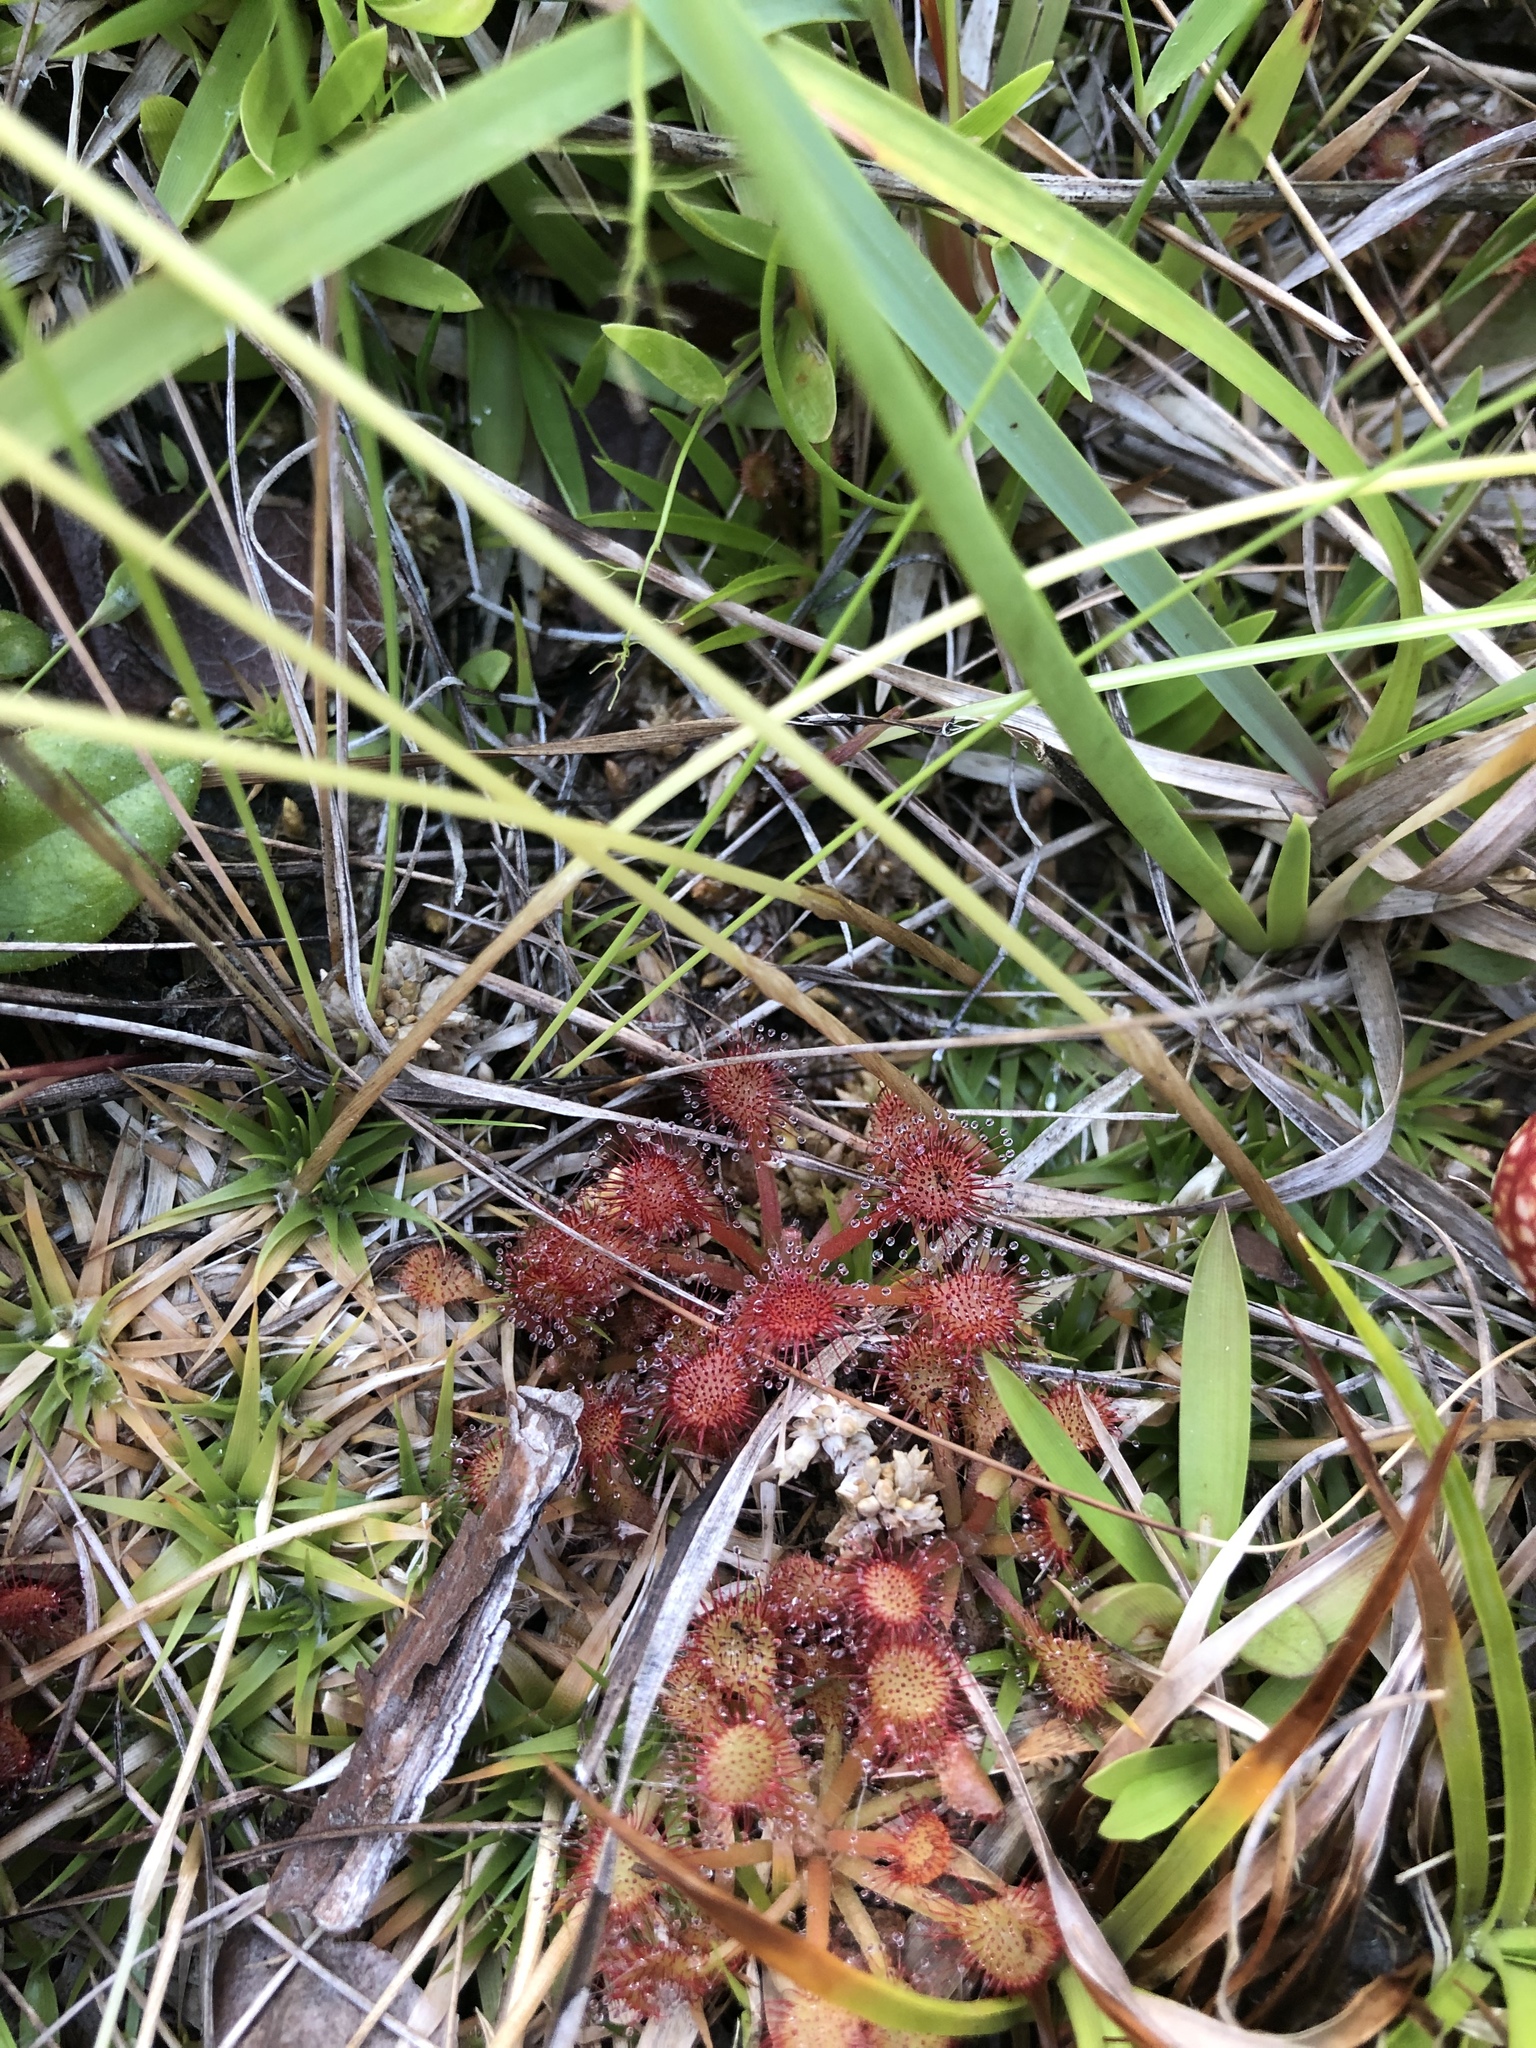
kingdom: Plantae
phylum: Tracheophyta
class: Magnoliopsida
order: Caryophyllales
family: Droseraceae
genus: Drosera
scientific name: Drosera capillaris
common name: Pink sundew
